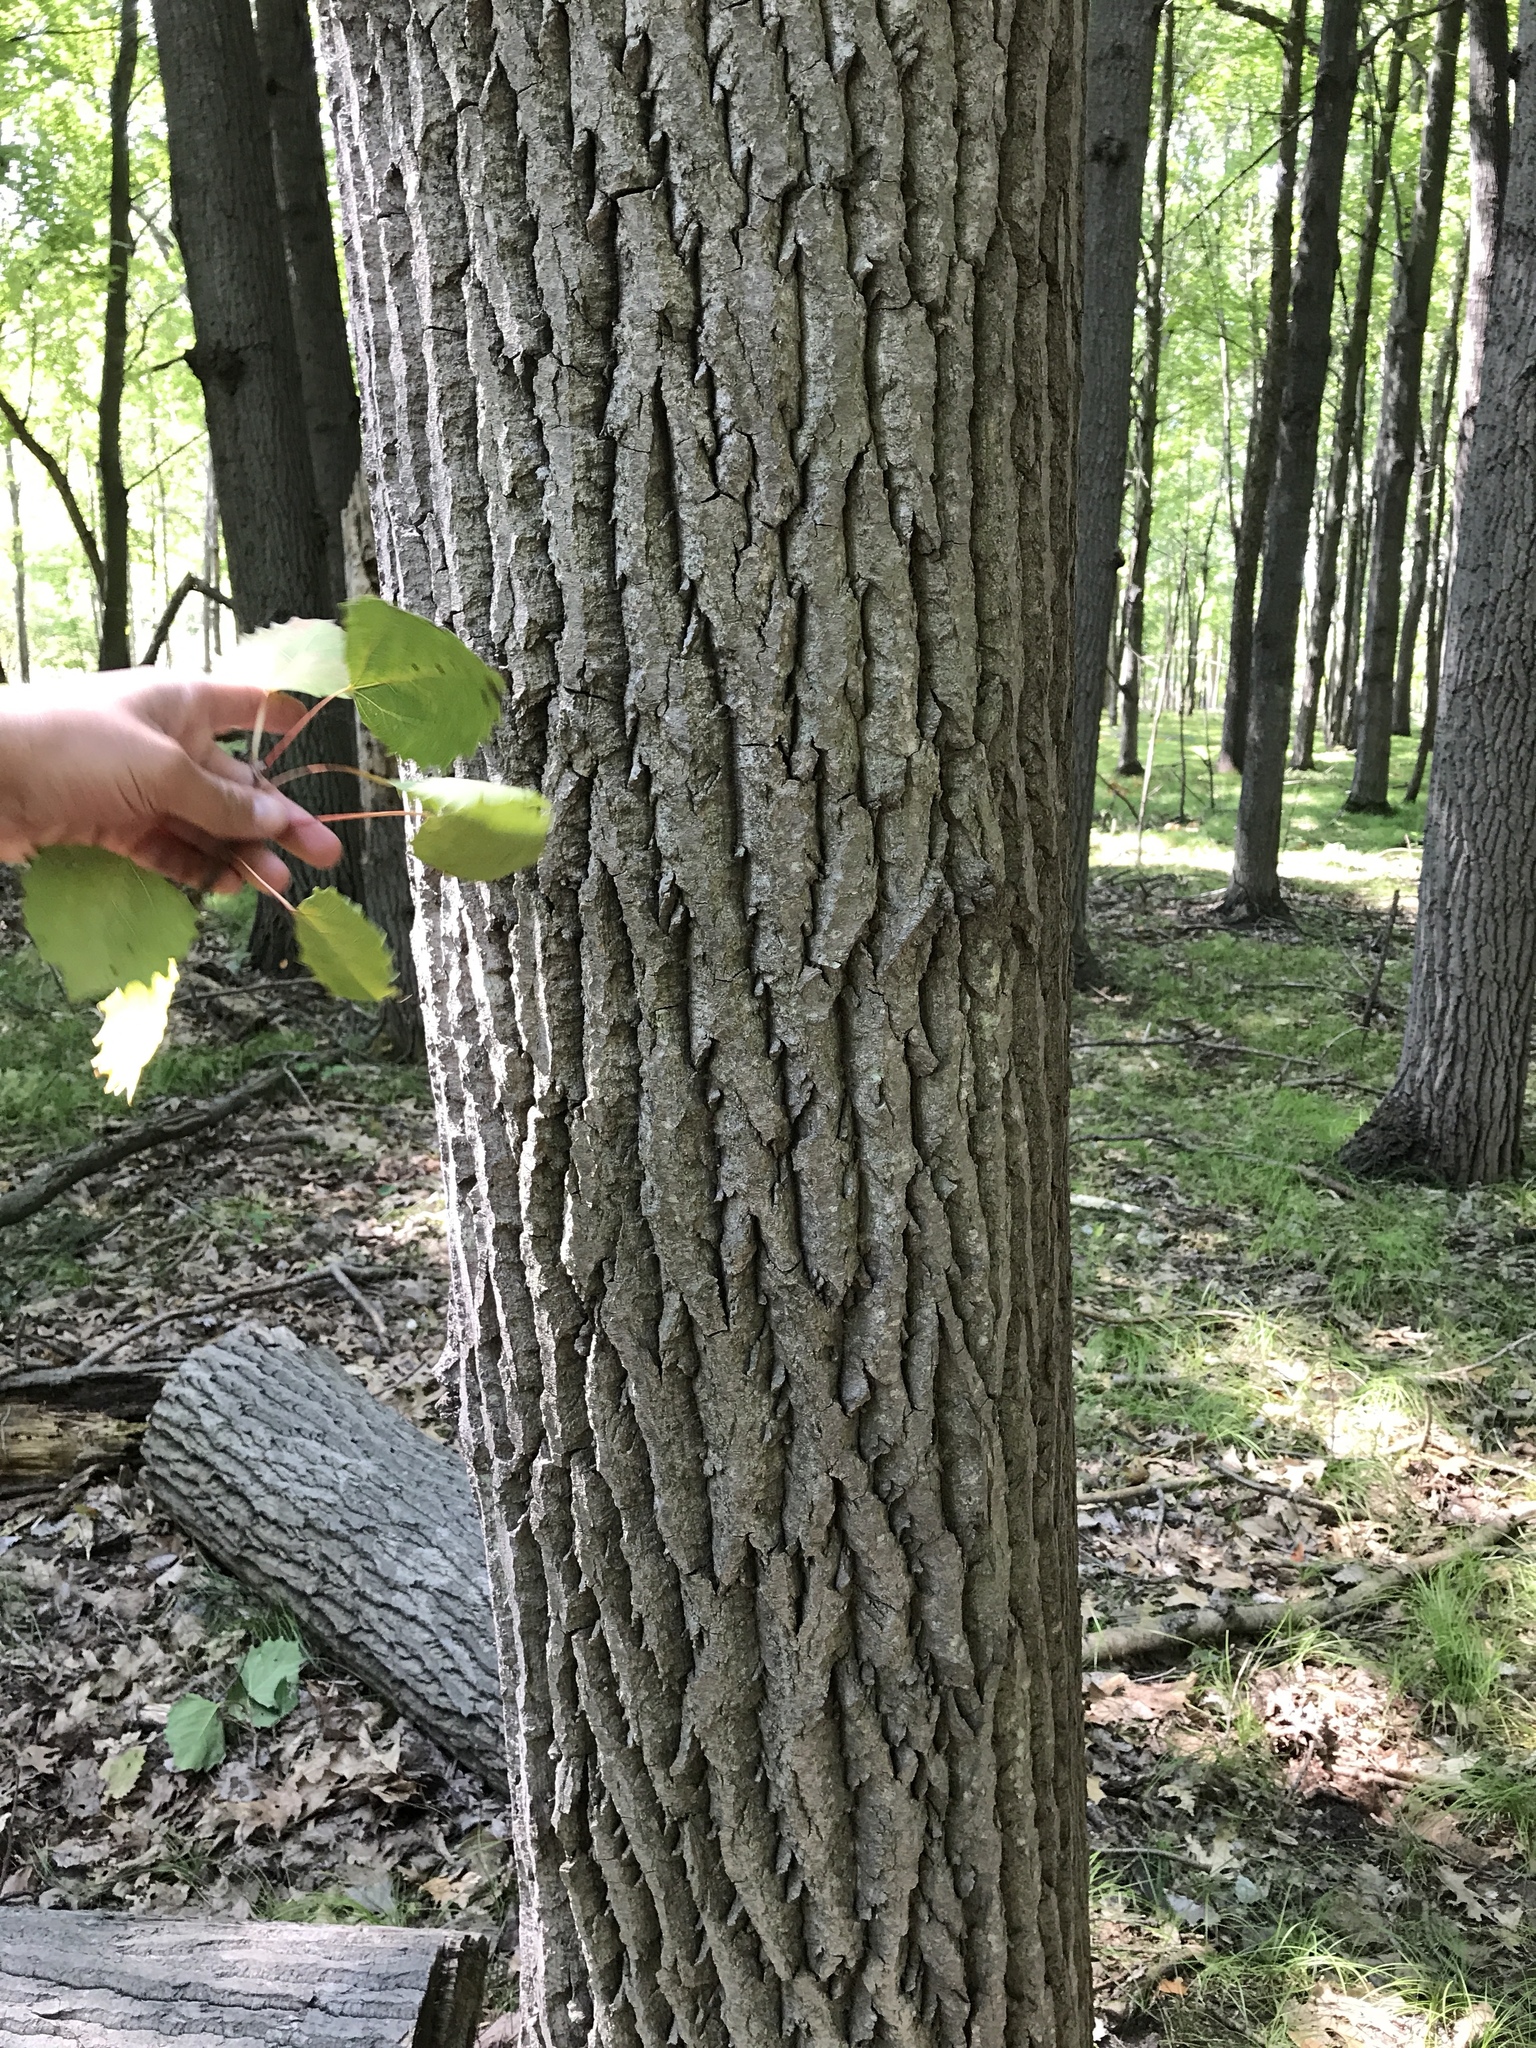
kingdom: Plantae
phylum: Tracheophyta
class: Magnoliopsida
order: Malpighiales
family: Salicaceae
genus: Populus
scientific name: Populus grandidentata
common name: Bigtooth aspen
